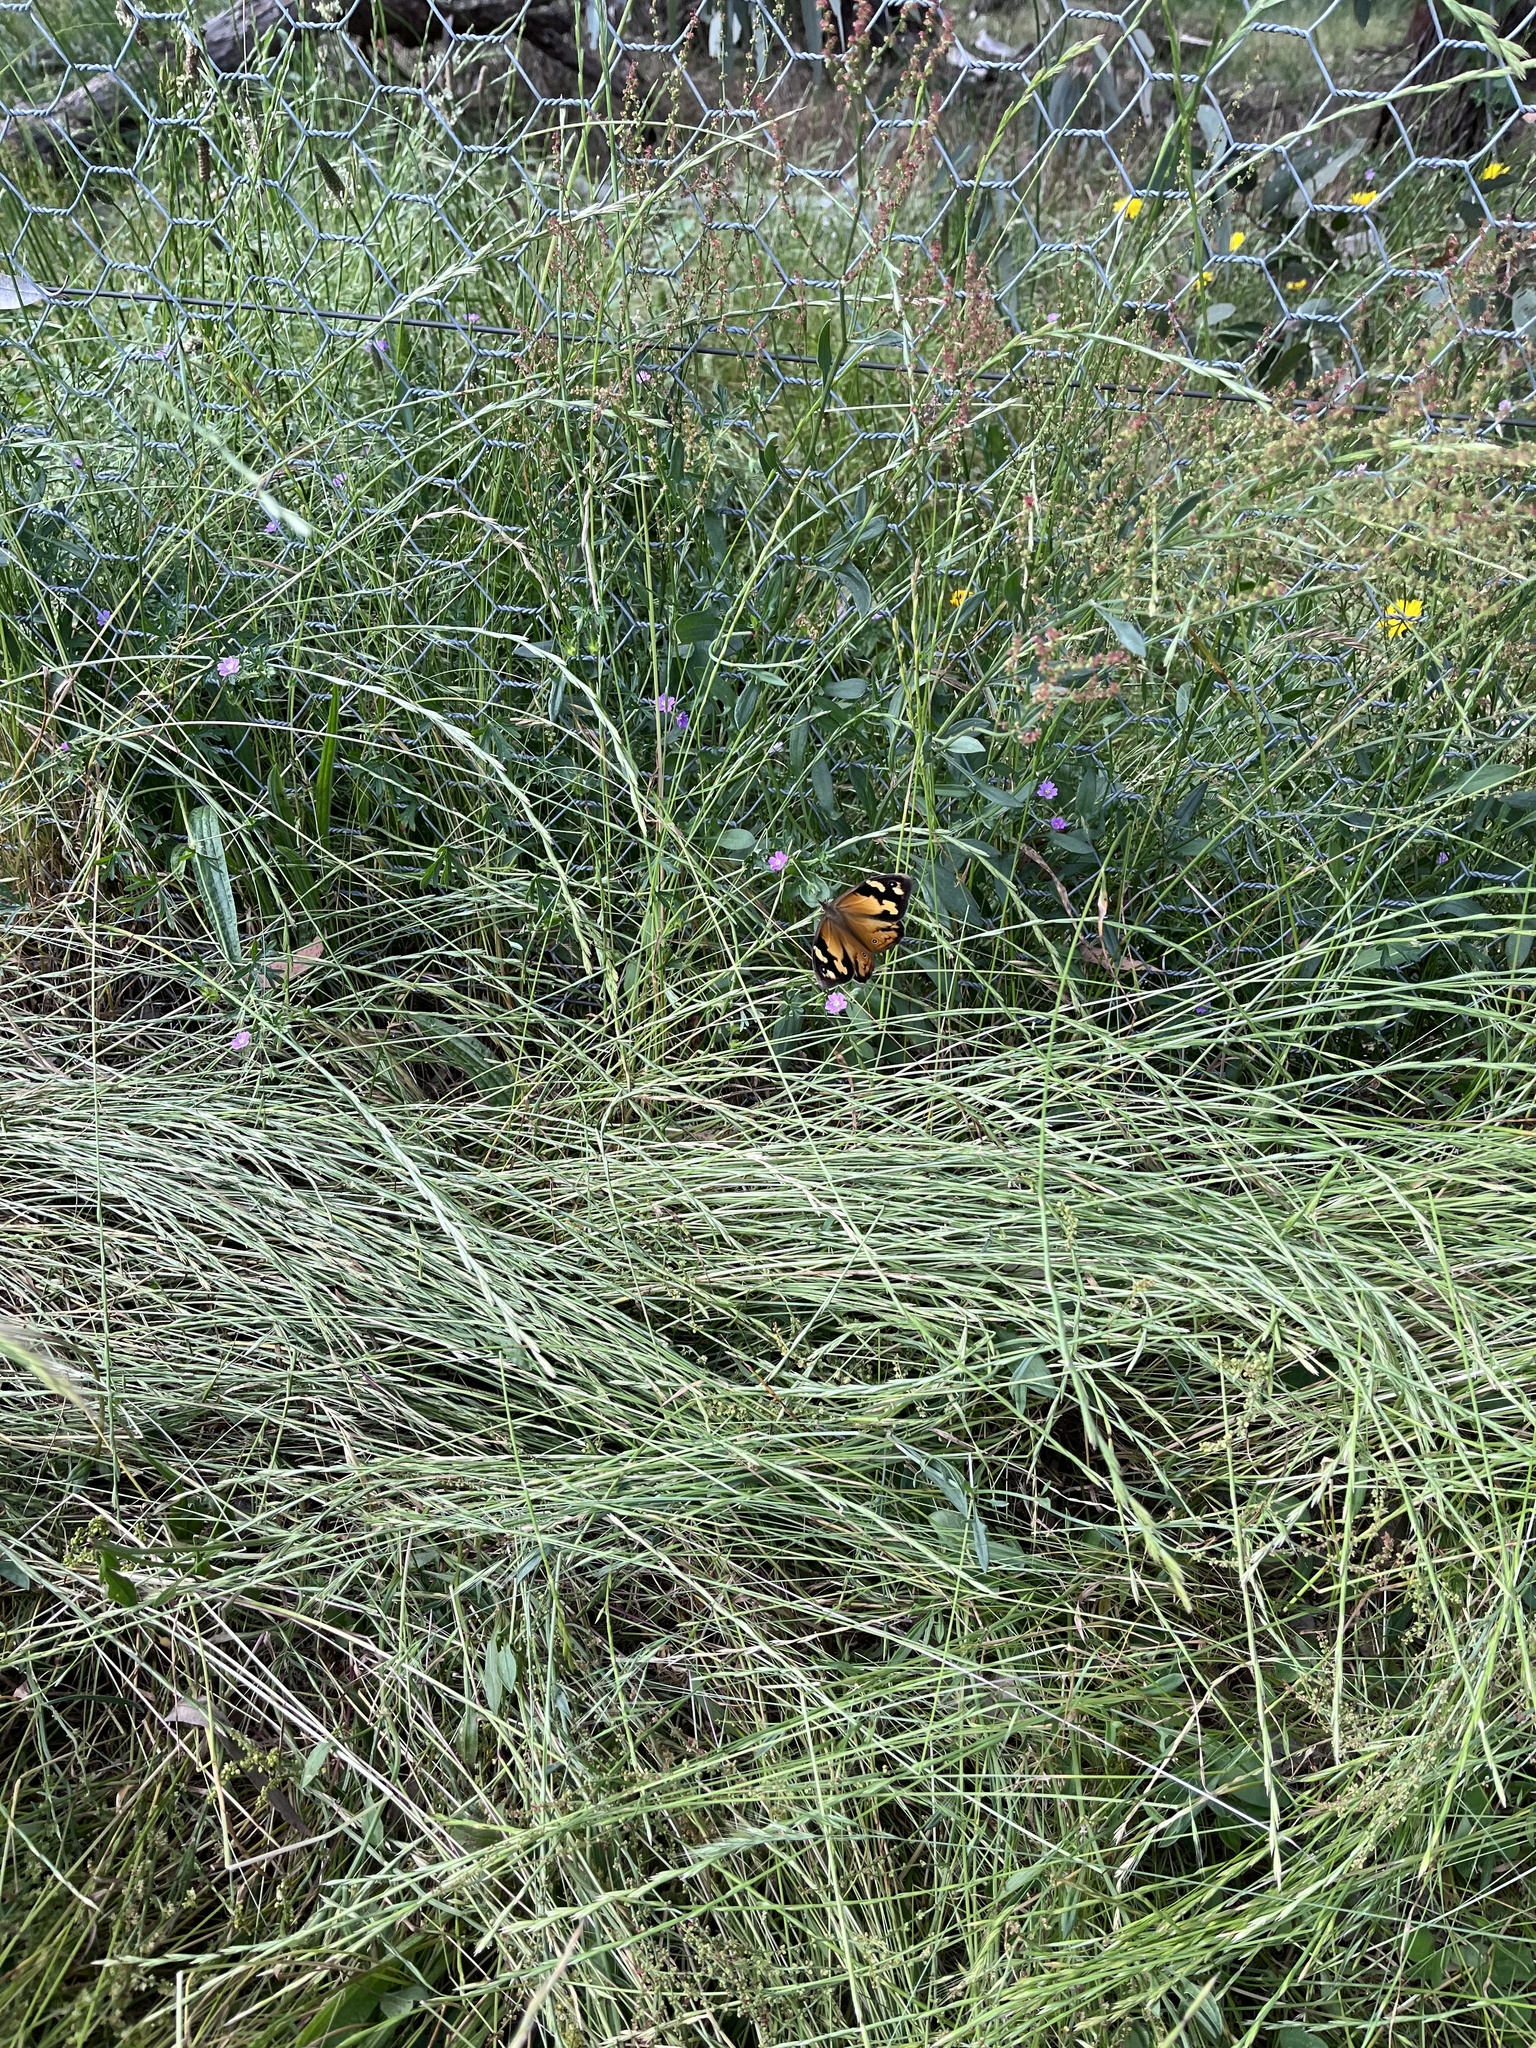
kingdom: Animalia
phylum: Arthropoda
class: Insecta
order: Lepidoptera
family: Nymphalidae
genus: Heteronympha
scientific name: Heteronympha merope
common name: Common brown
